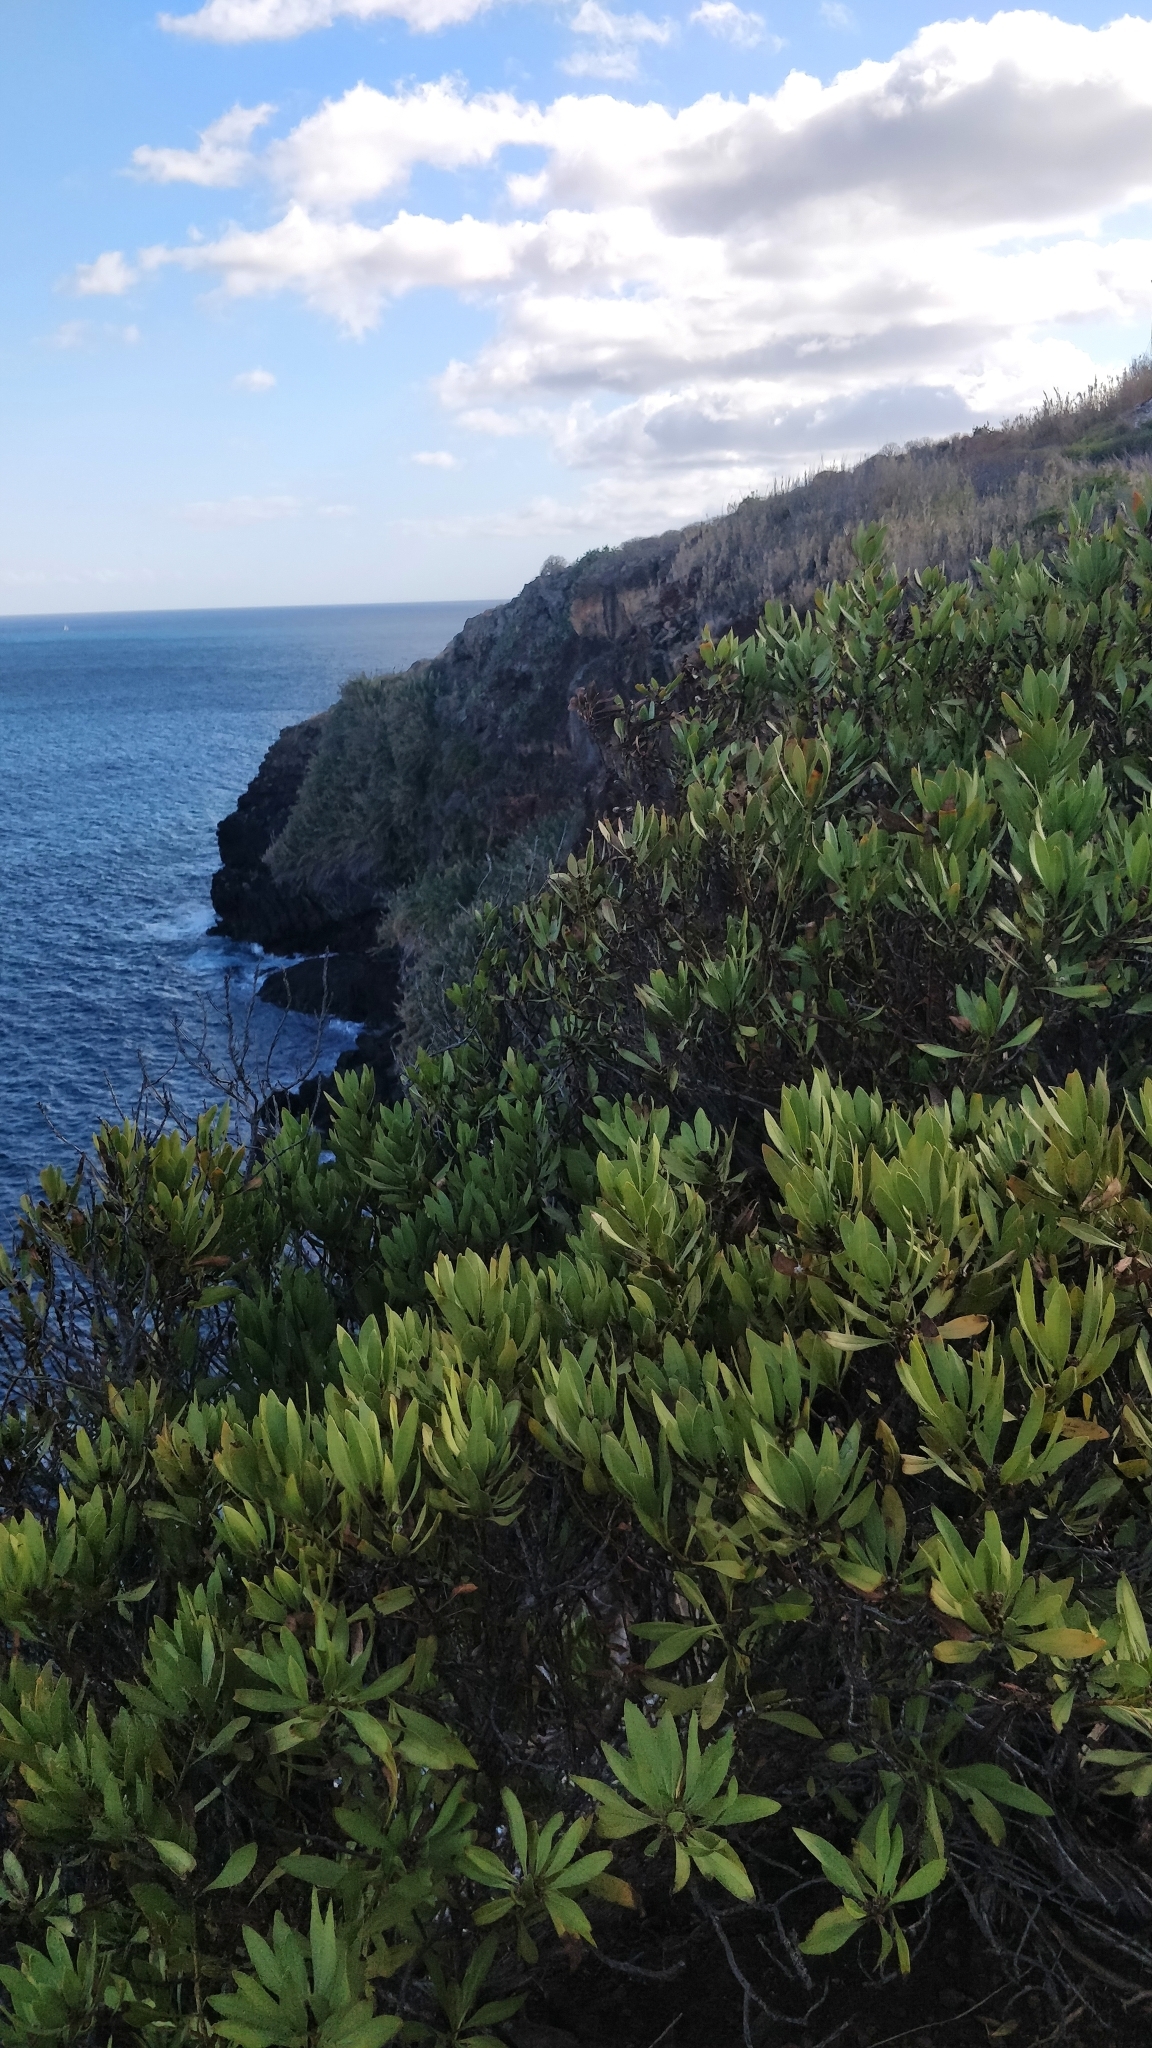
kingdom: Plantae
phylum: Tracheophyta
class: Magnoliopsida
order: Lamiales
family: Plantaginaceae
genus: Globularia
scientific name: Globularia salicina
